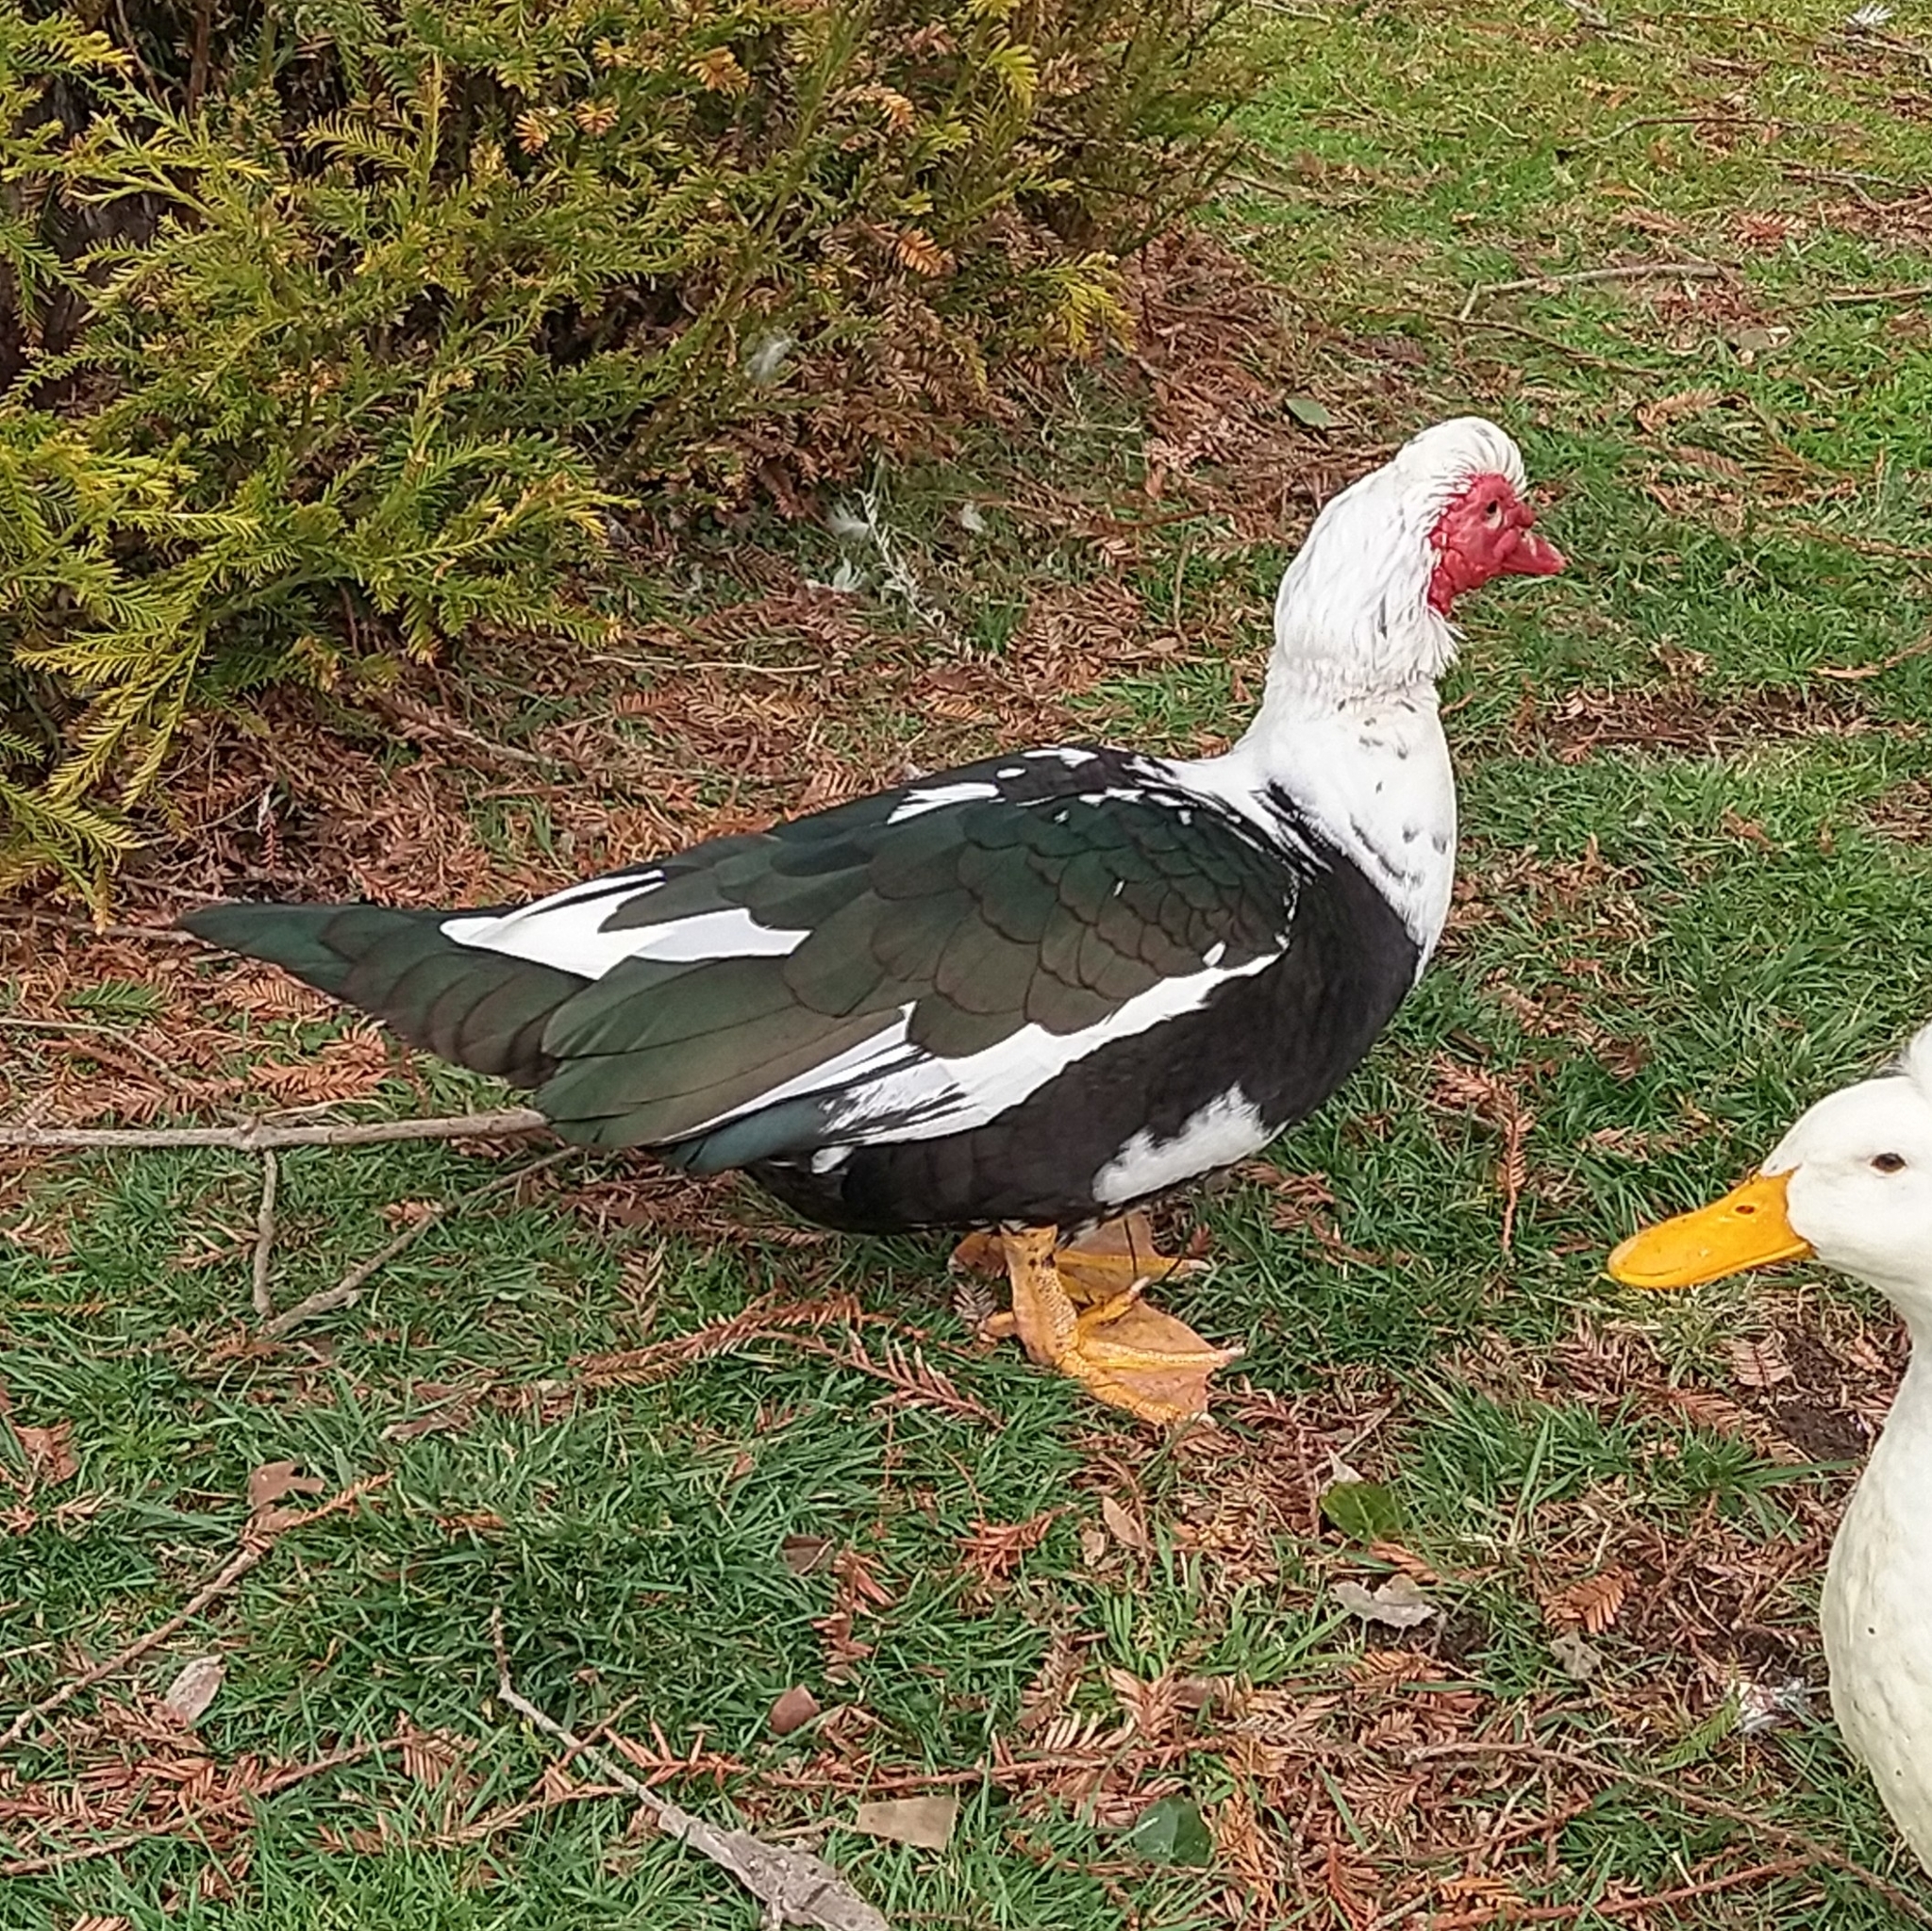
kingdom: Animalia
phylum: Chordata
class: Aves
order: Anseriformes
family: Anatidae
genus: Cairina
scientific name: Cairina moschata
